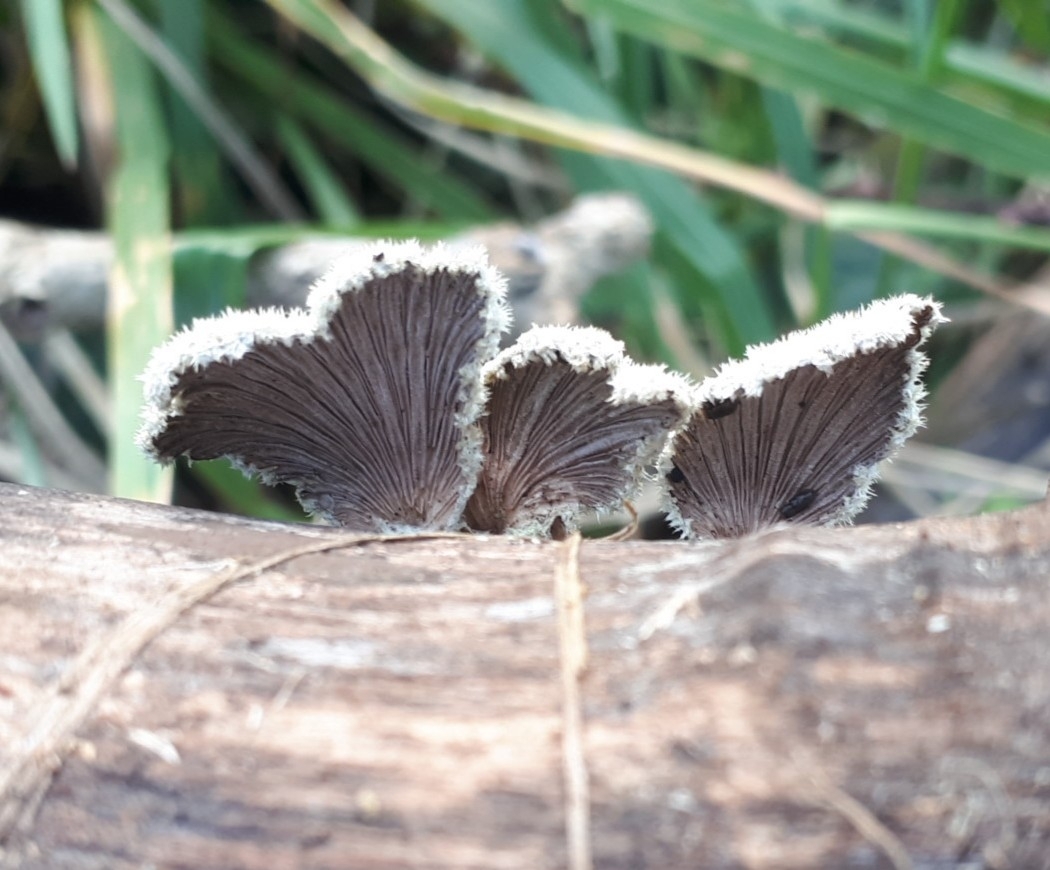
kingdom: Fungi
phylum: Basidiomycota
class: Agaricomycetes
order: Agaricales
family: Schizophyllaceae
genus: Schizophyllum
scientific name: Schizophyllum commune
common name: Common porecrust
